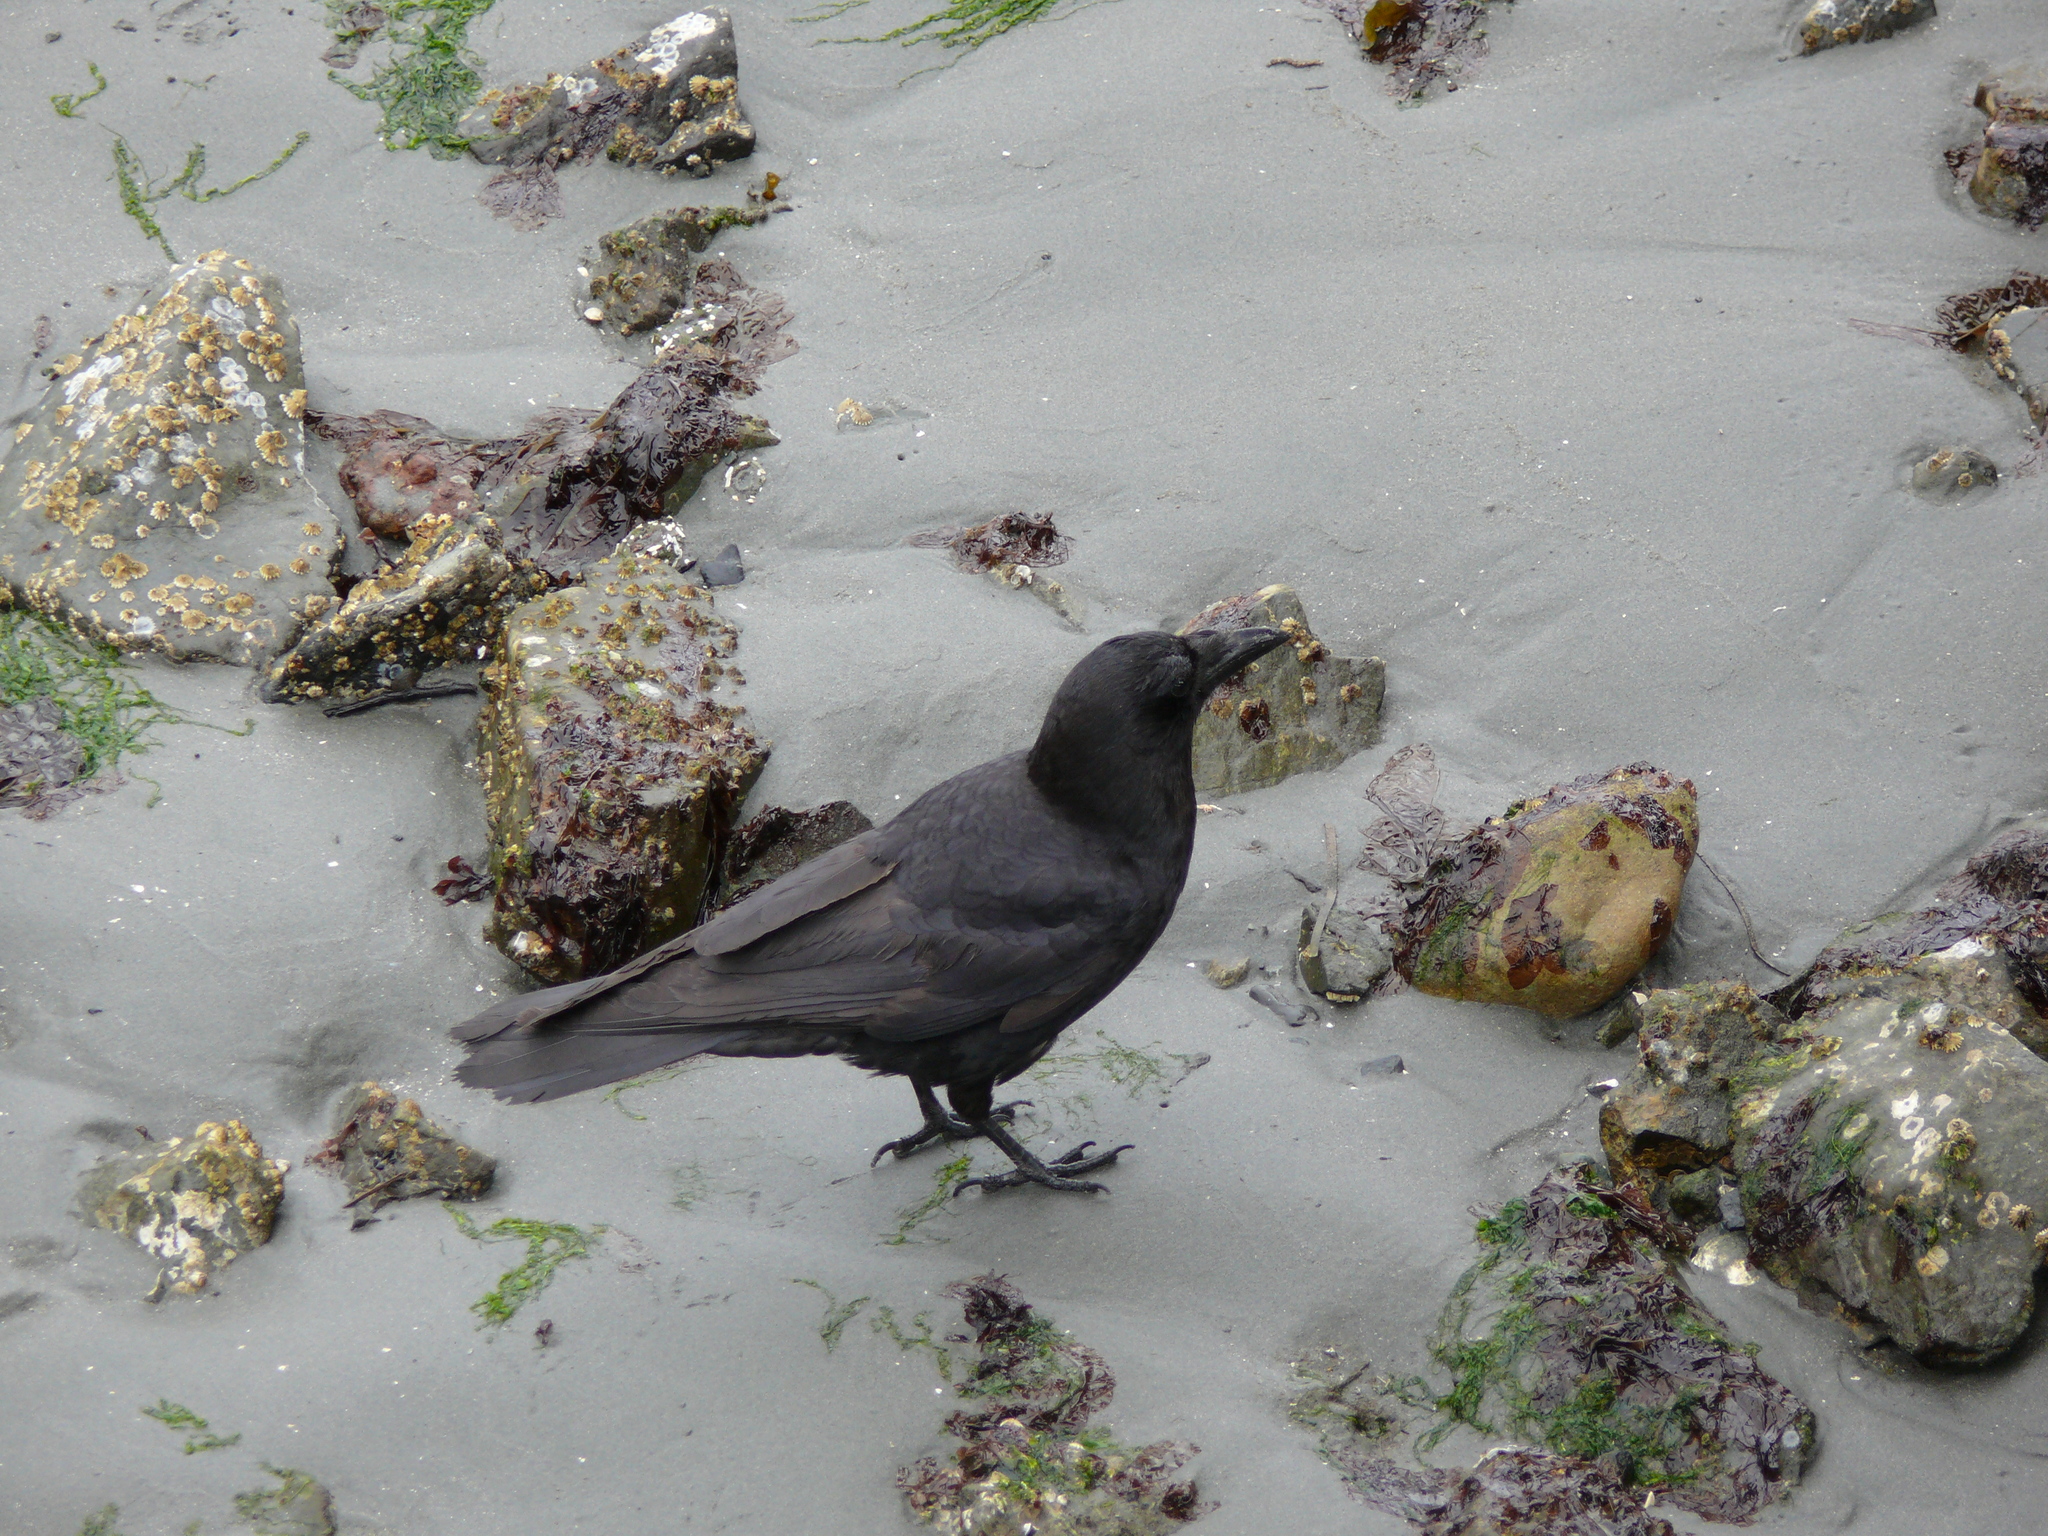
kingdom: Animalia
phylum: Chordata
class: Aves
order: Passeriformes
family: Corvidae
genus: Corvus
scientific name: Corvus brachyrhynchos
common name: American crow
